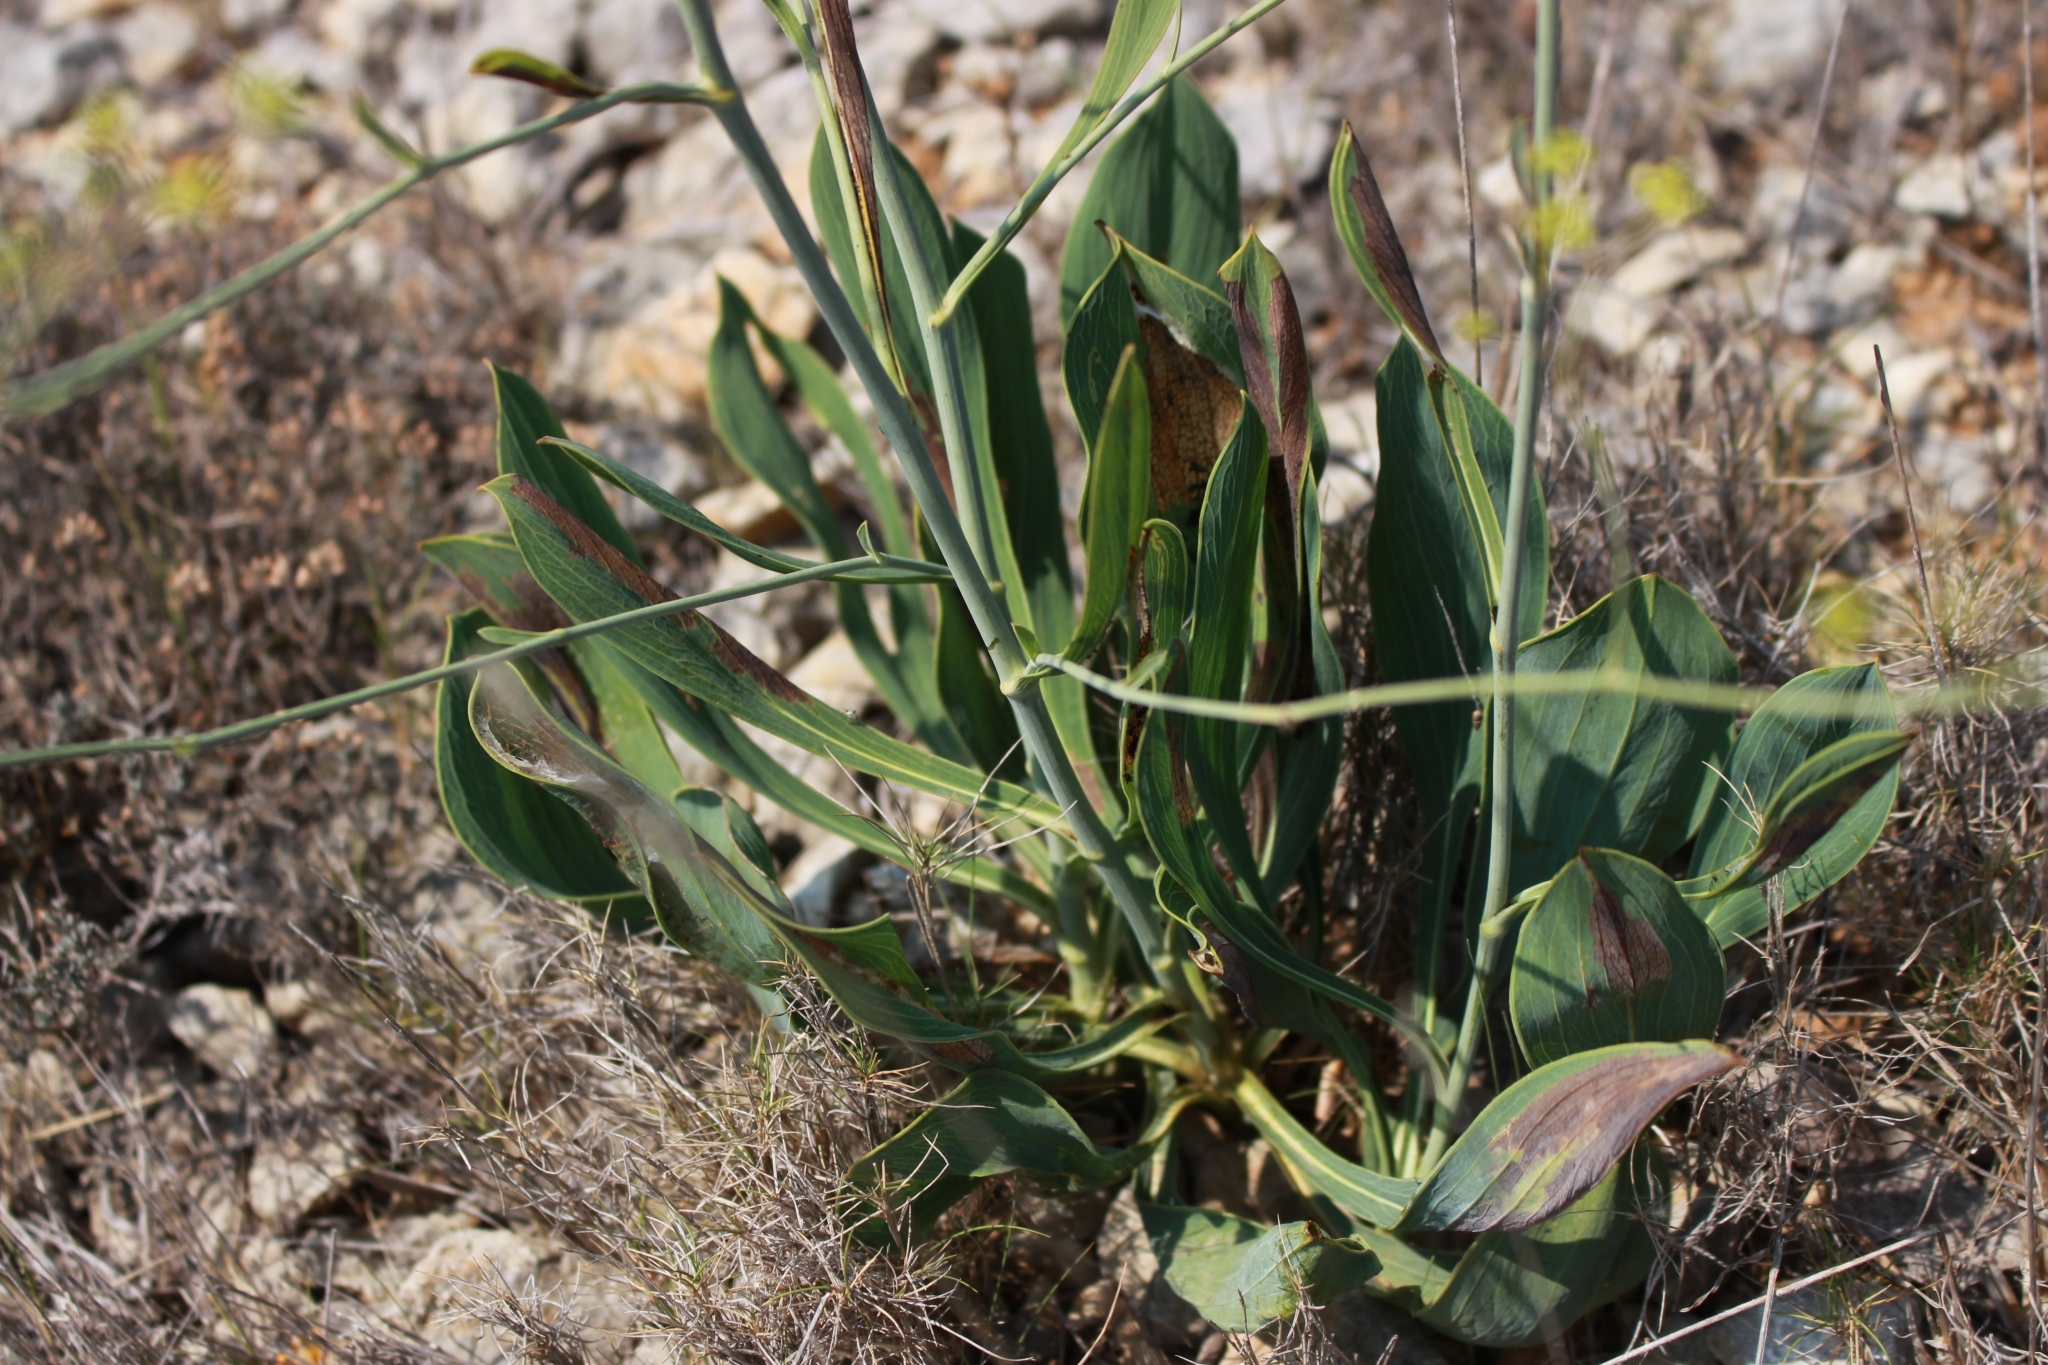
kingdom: Plantae
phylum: Tracheophyta
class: Magnoliopsida
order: Apiales
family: Apiaceae
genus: Bupleurum
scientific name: Bupleurum rigidum
